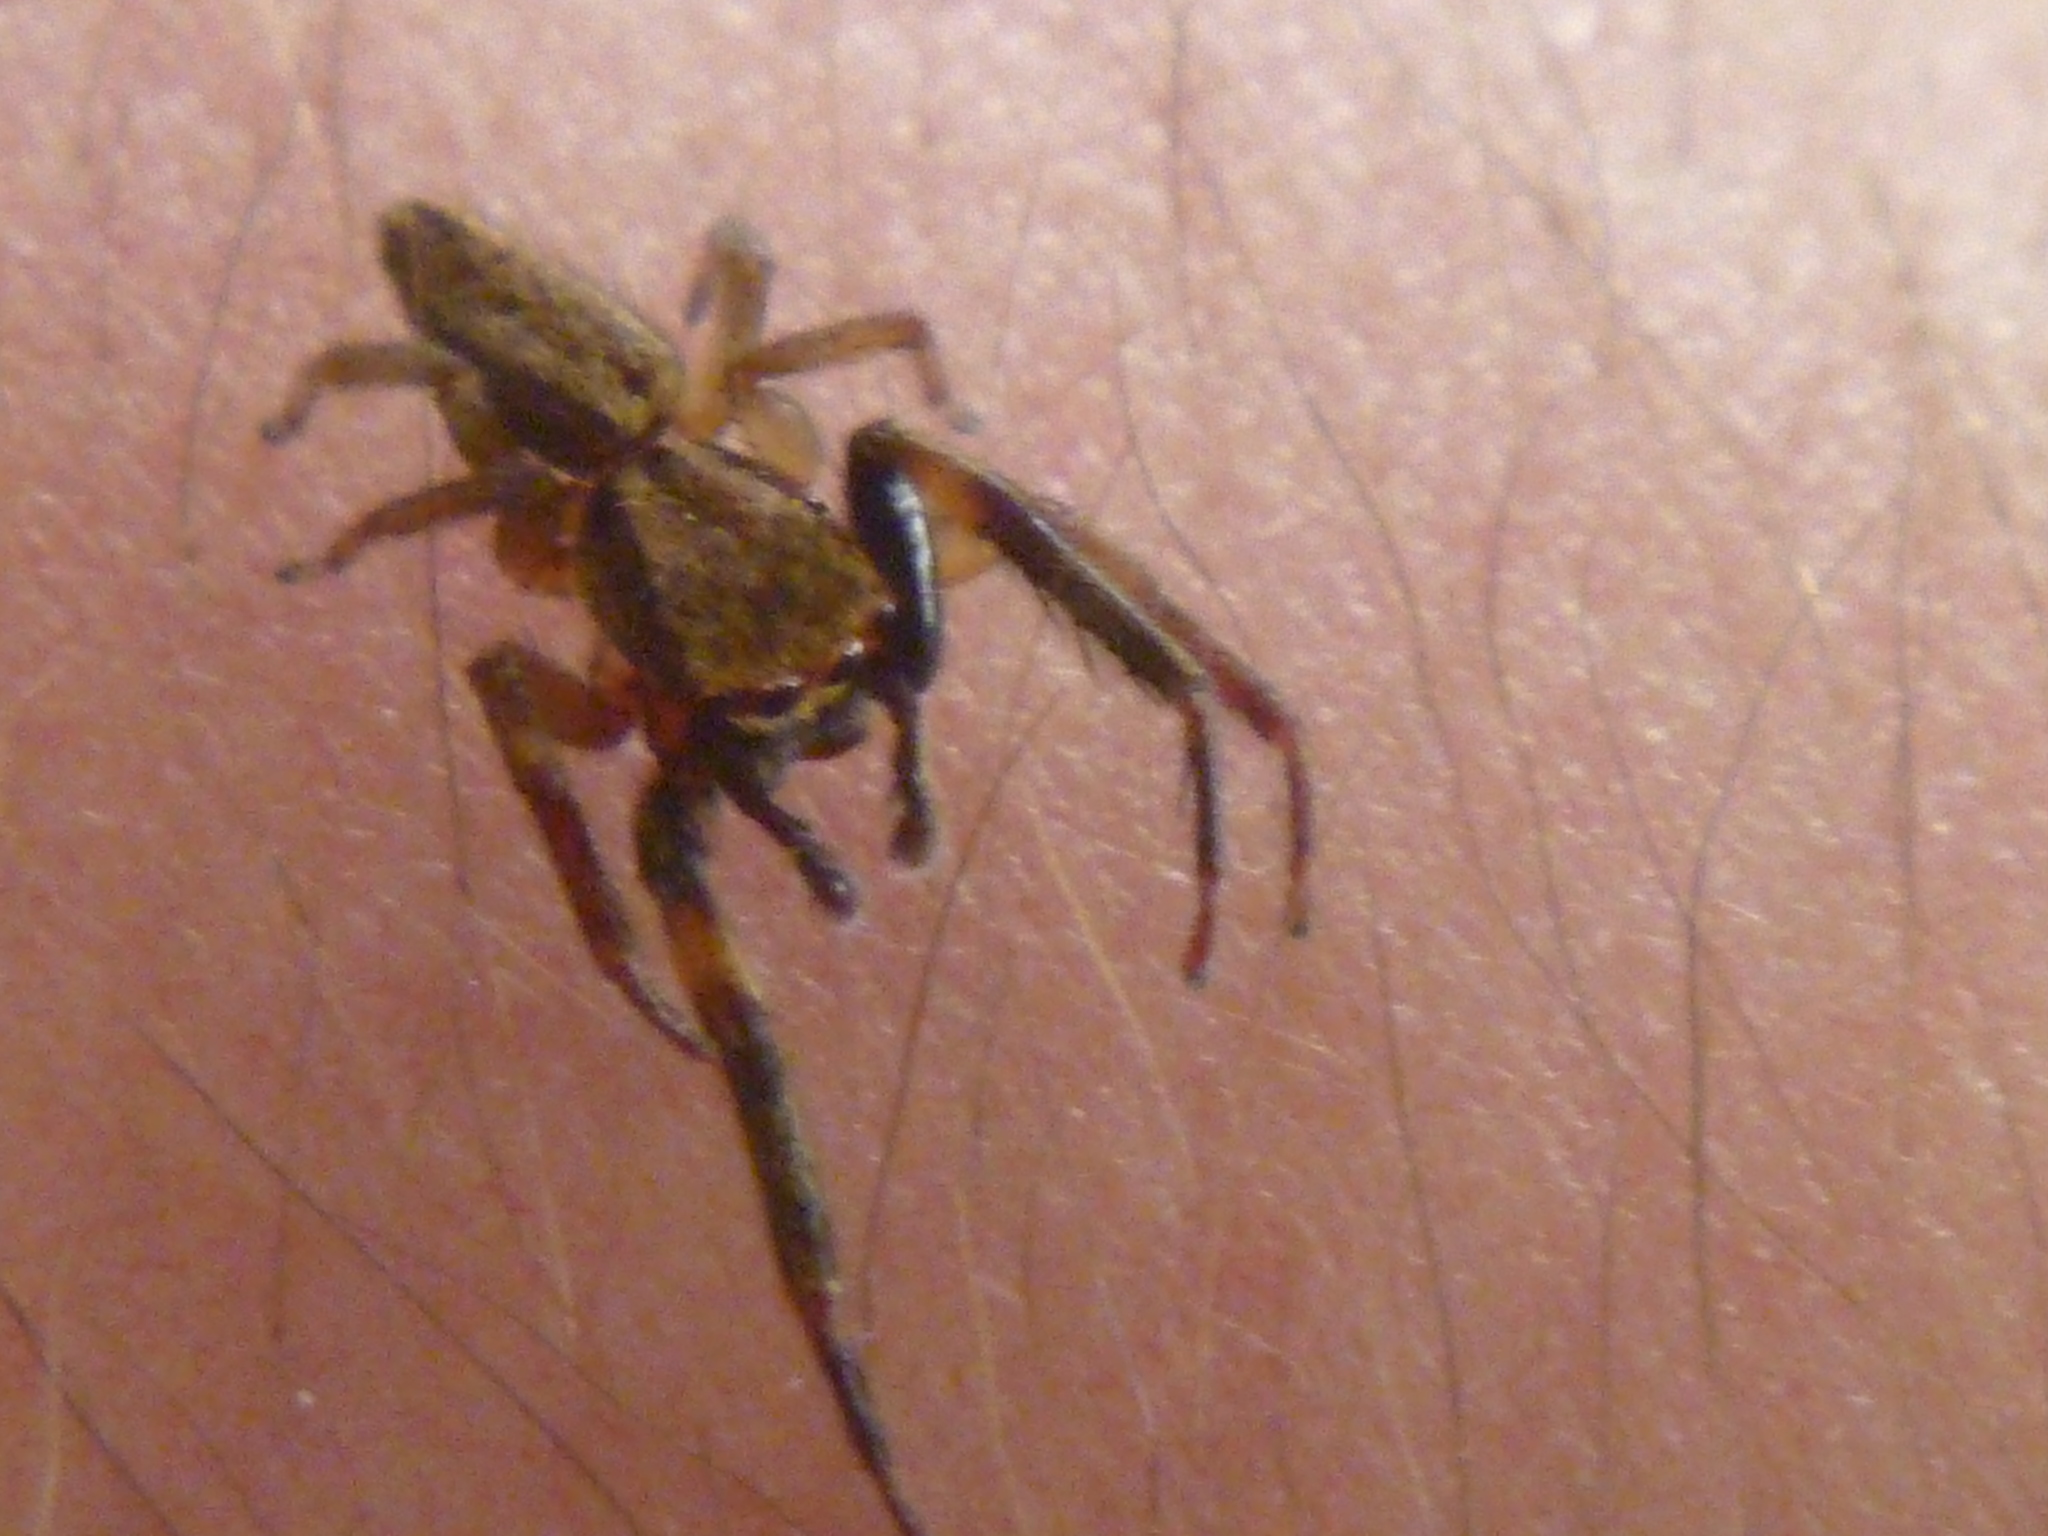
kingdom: Animalia
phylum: Arthropoda
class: Arachnida
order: Araneae
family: Salticidae
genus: Trite
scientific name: Trite auricoma
